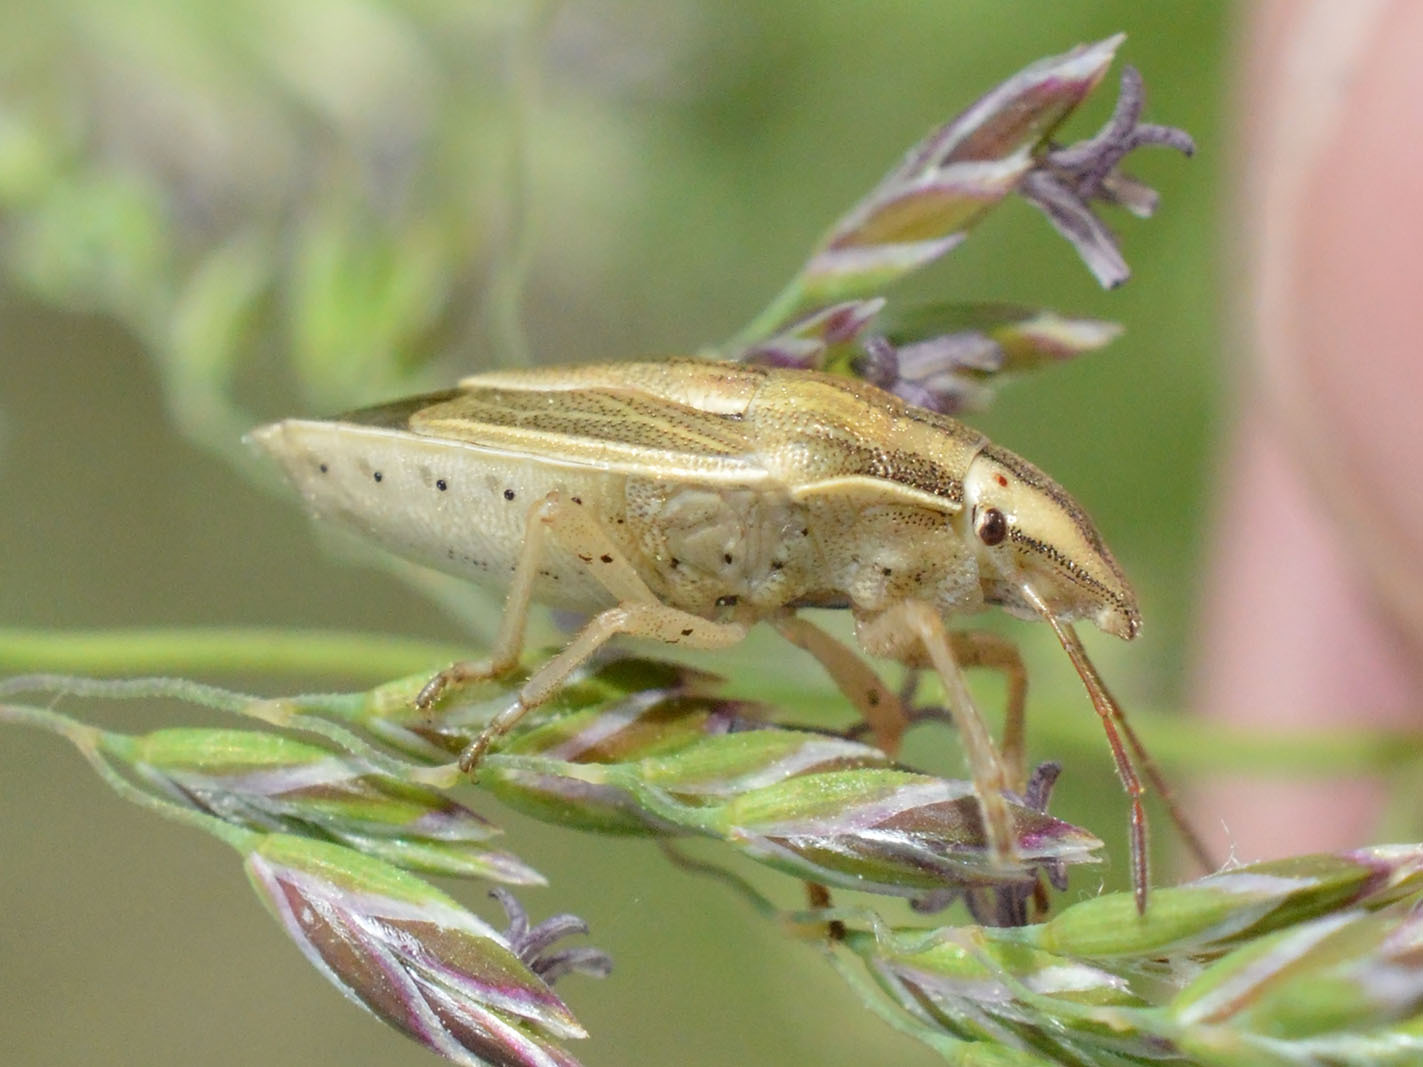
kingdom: Animalia
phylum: Arthropoda
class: Insecta
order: Hemiptera
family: Pentatomidae
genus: Aelia
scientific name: Aelia acuminata
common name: Bishop's mitre
